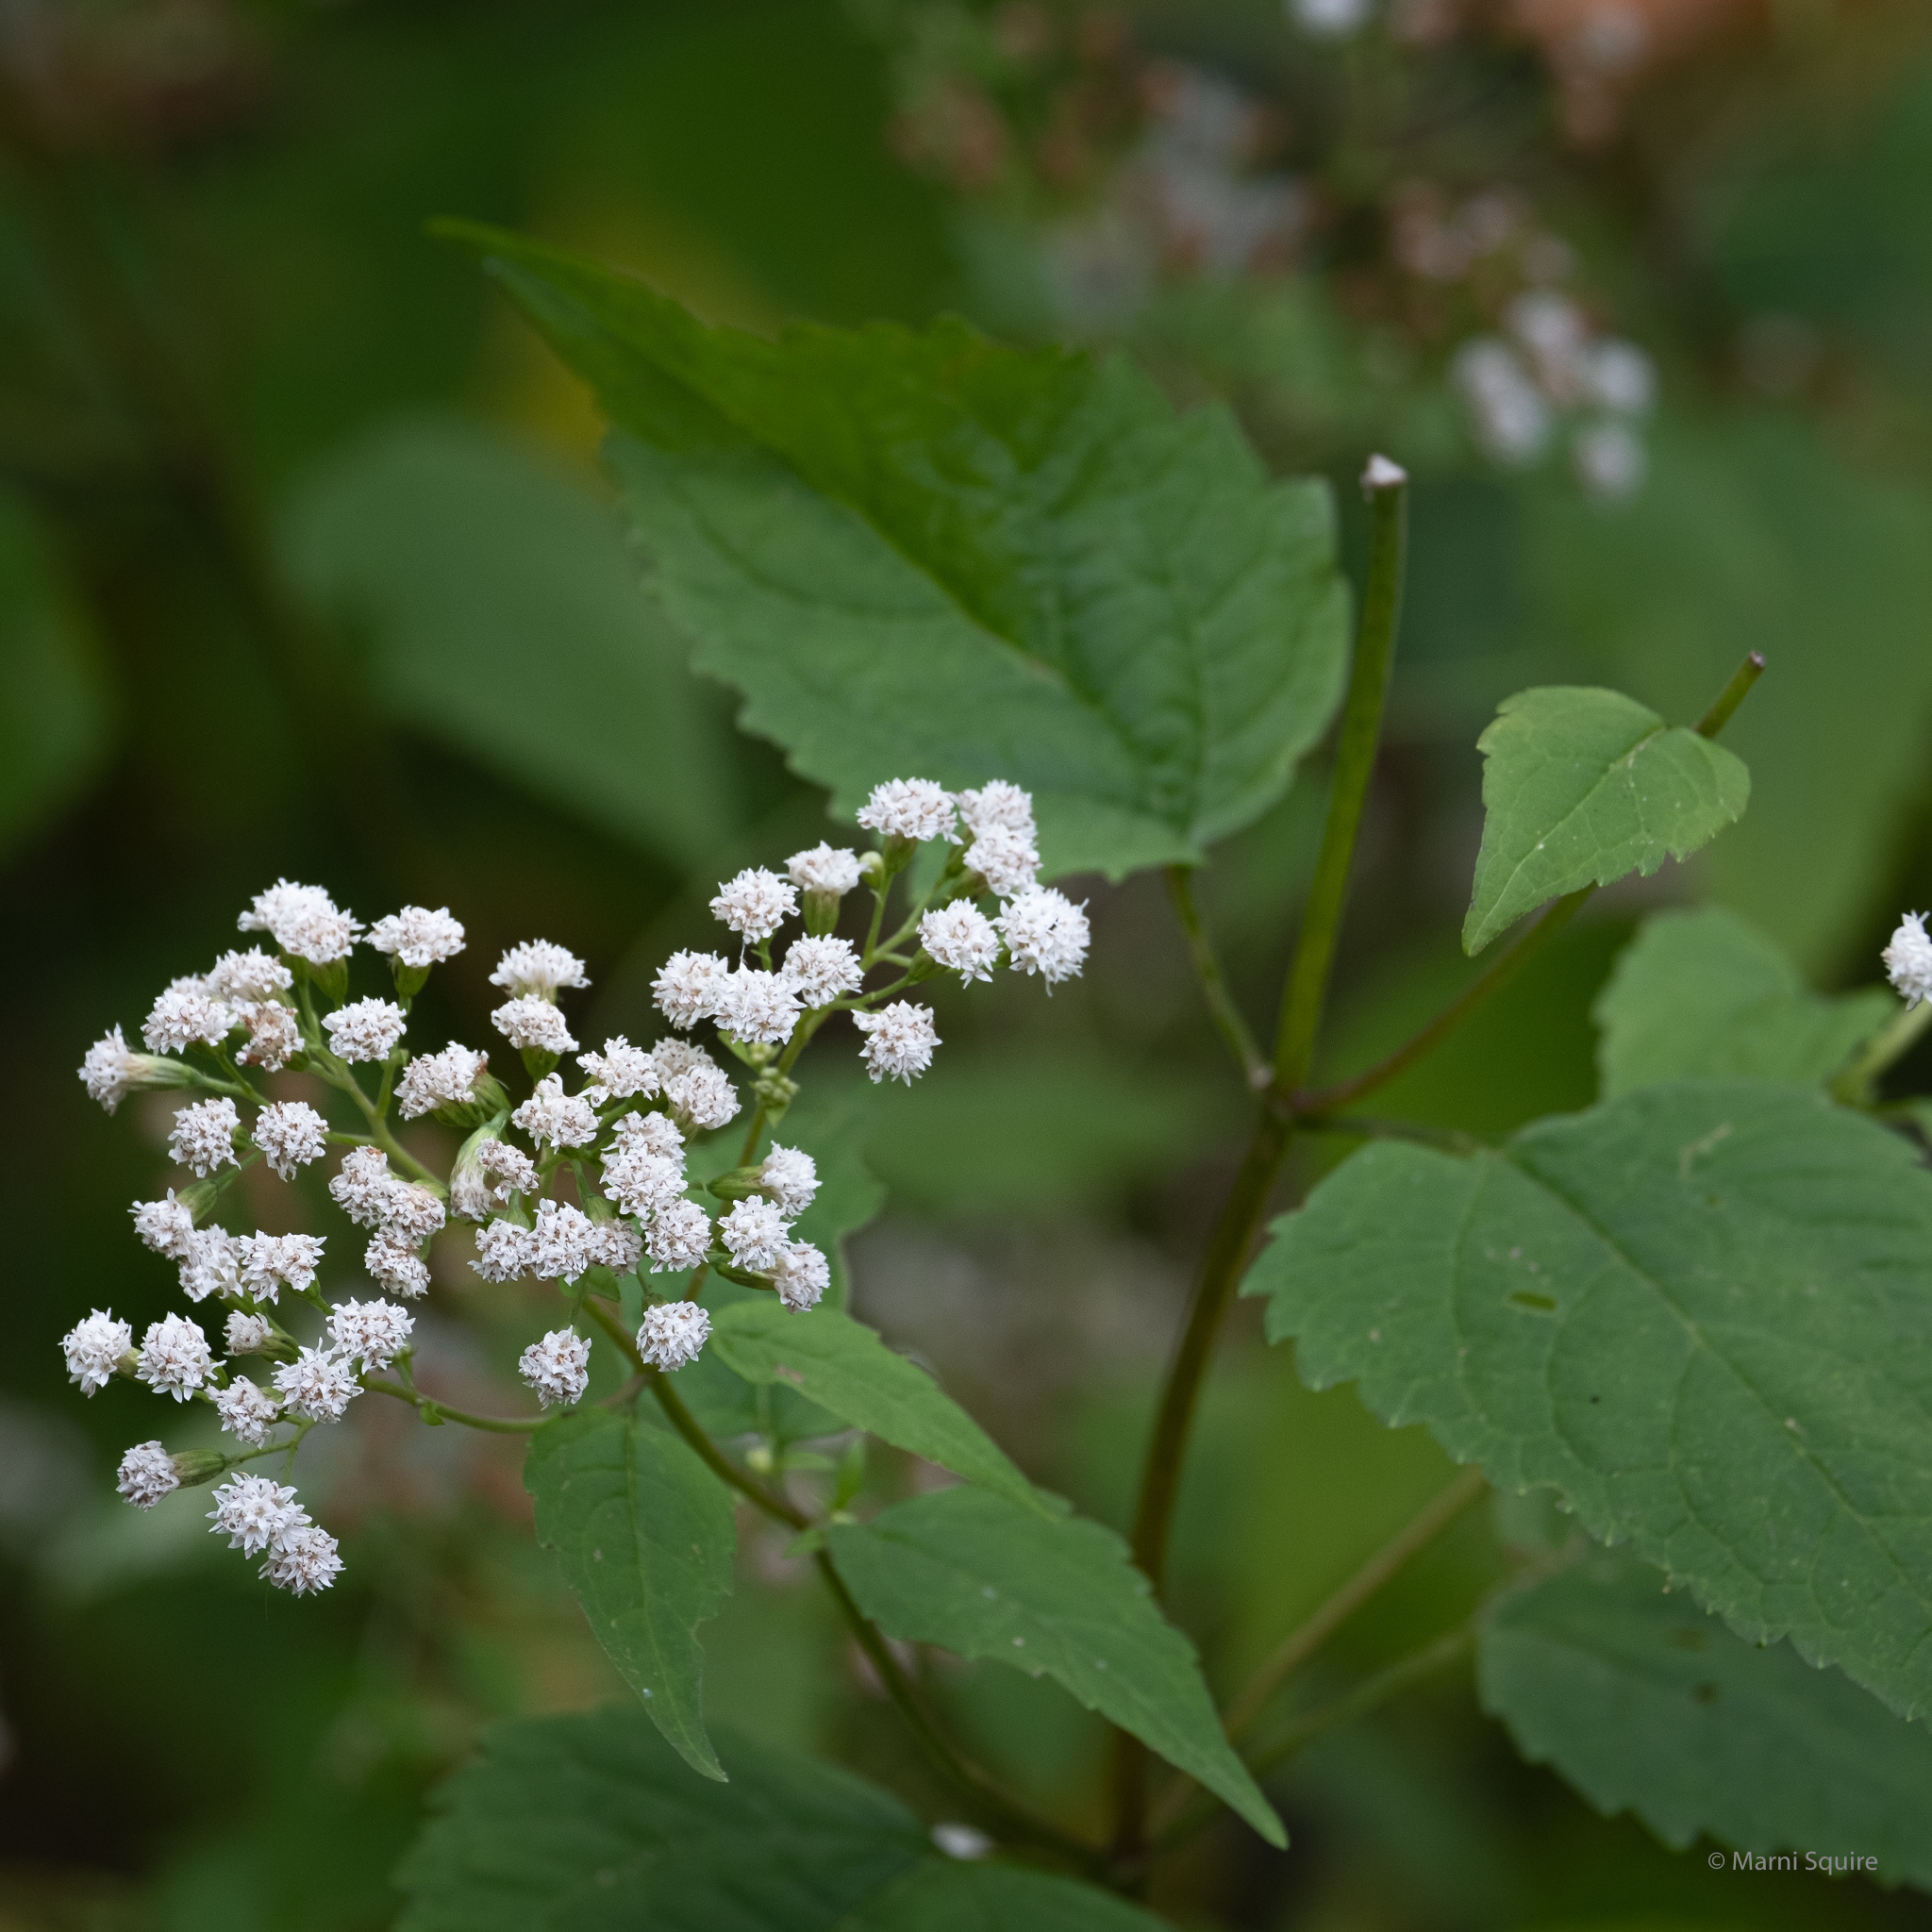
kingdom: Plantae
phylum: Tracheophyta
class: Magnoliopsida
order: Asterales
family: Asteraceae
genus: Ageratina
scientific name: Ageratina altissima
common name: White snakeroot
